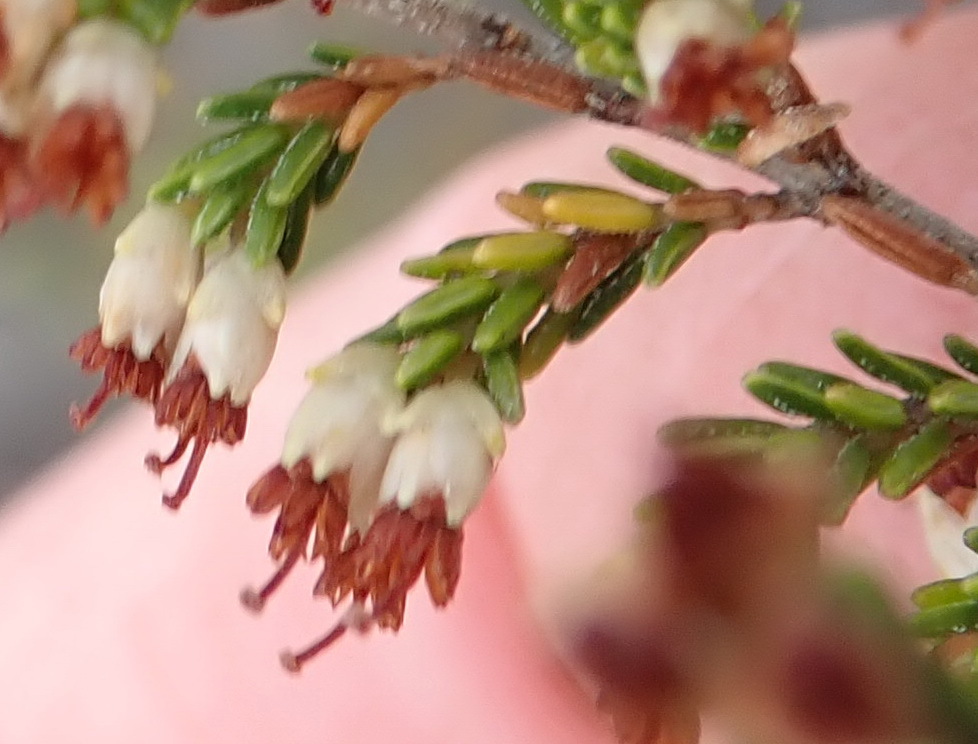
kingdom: Plantae
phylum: Tracheophyta
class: Magnoliopsida
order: Ericales
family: Ericaceae
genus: Erica
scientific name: Erica lasciva
